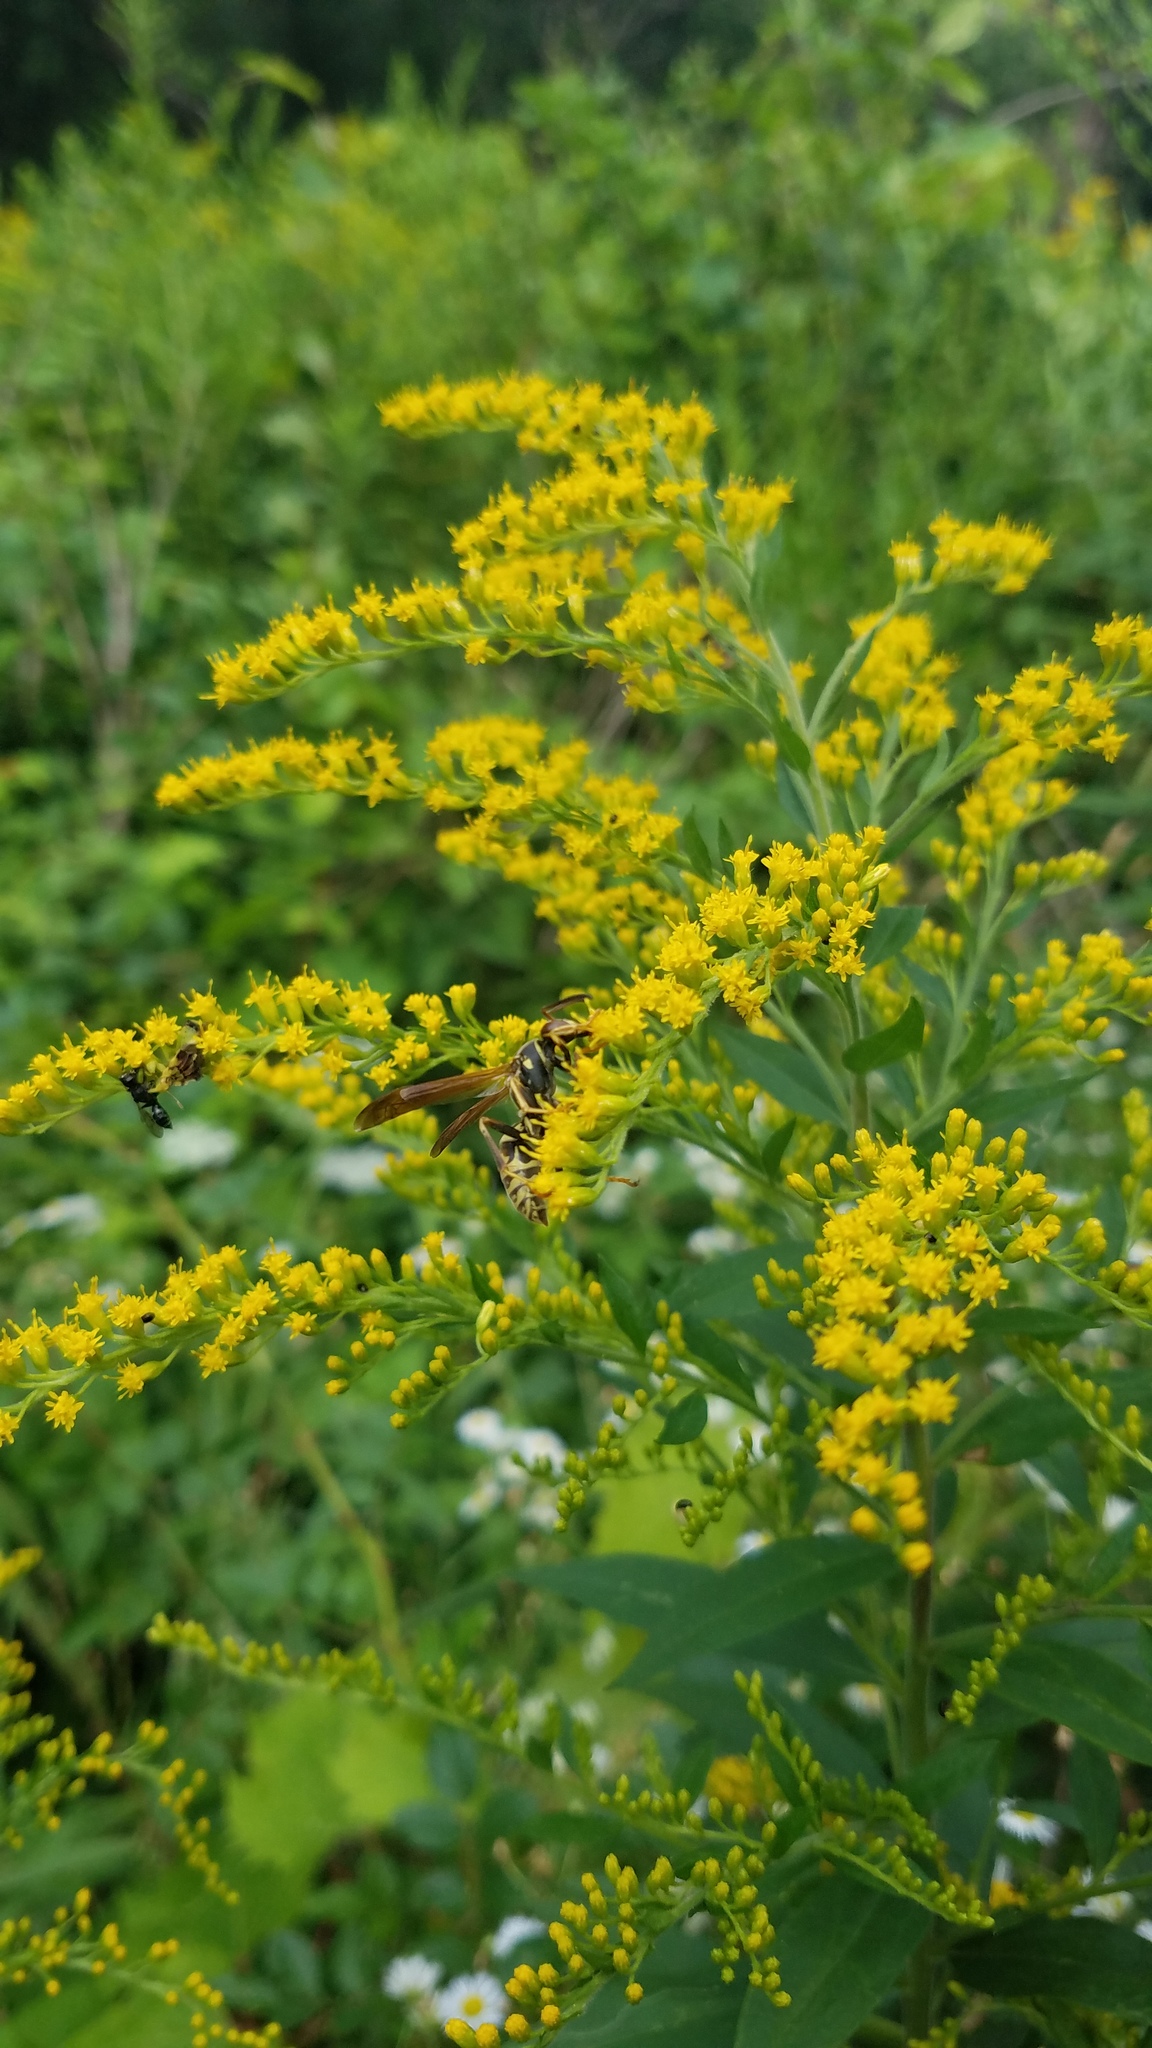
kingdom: Animalia
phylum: Arthropoda
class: Insecta
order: Hymenoptera
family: Eumenidae
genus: Polistes
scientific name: Polistes fuscatus
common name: Dark paper wasp
